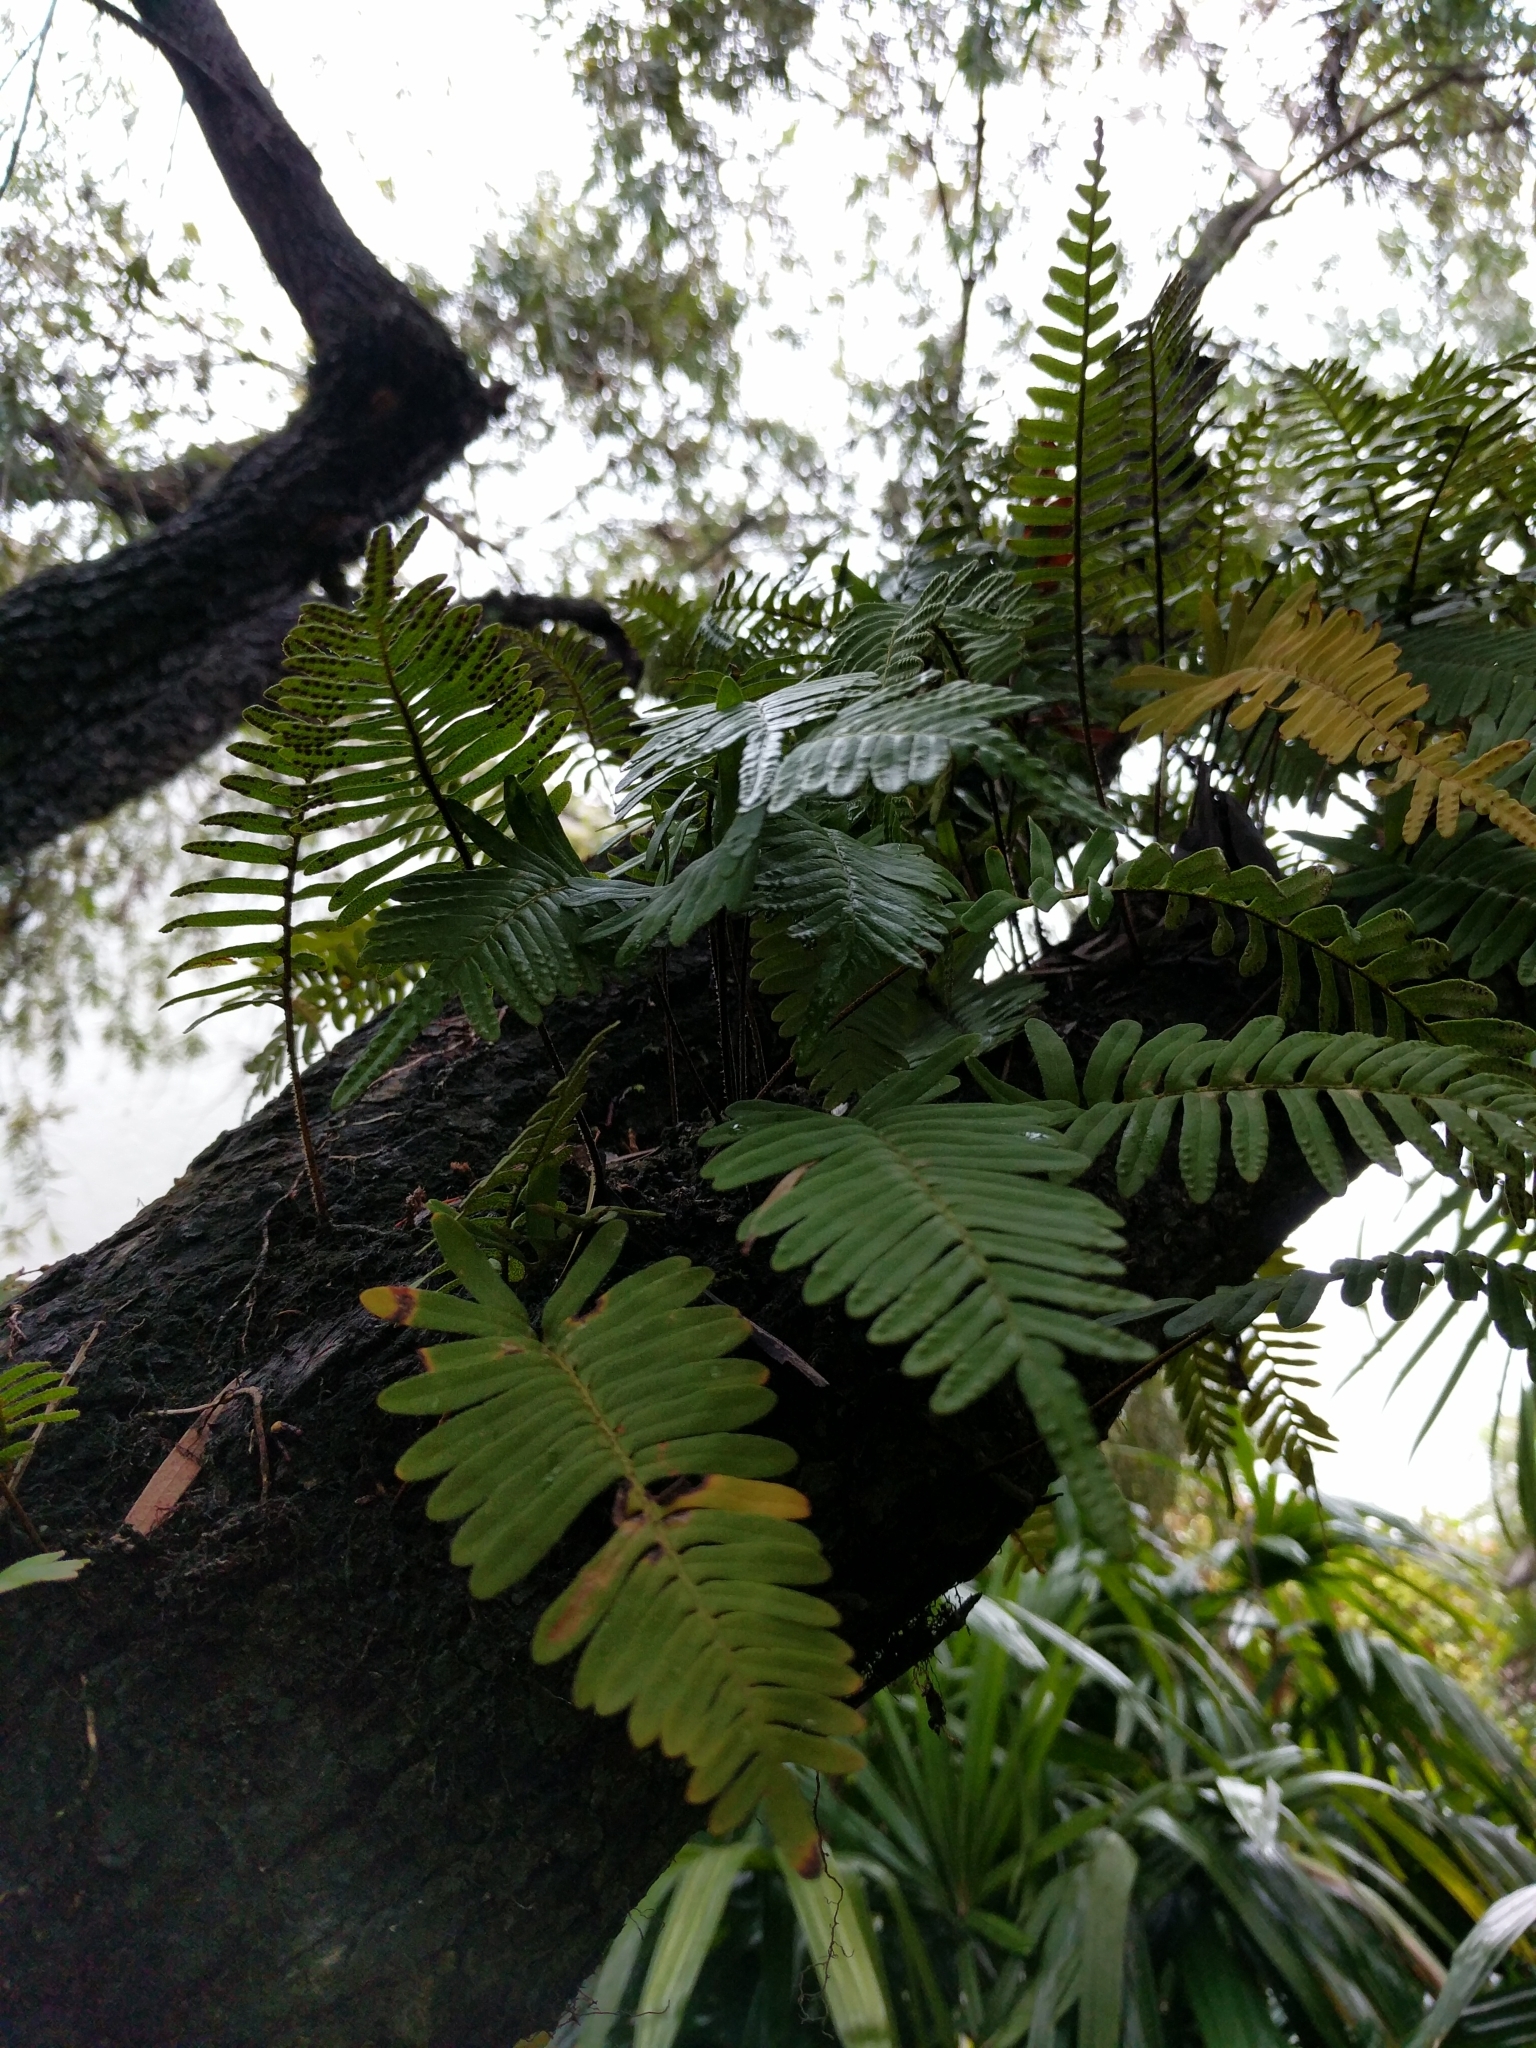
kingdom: Plantae
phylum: Tracheophyta
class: Polypodiopsida
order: Polypodiales
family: Polypodiaceae
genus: Pleopeltis
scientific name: Pleopeltis michauxiana
